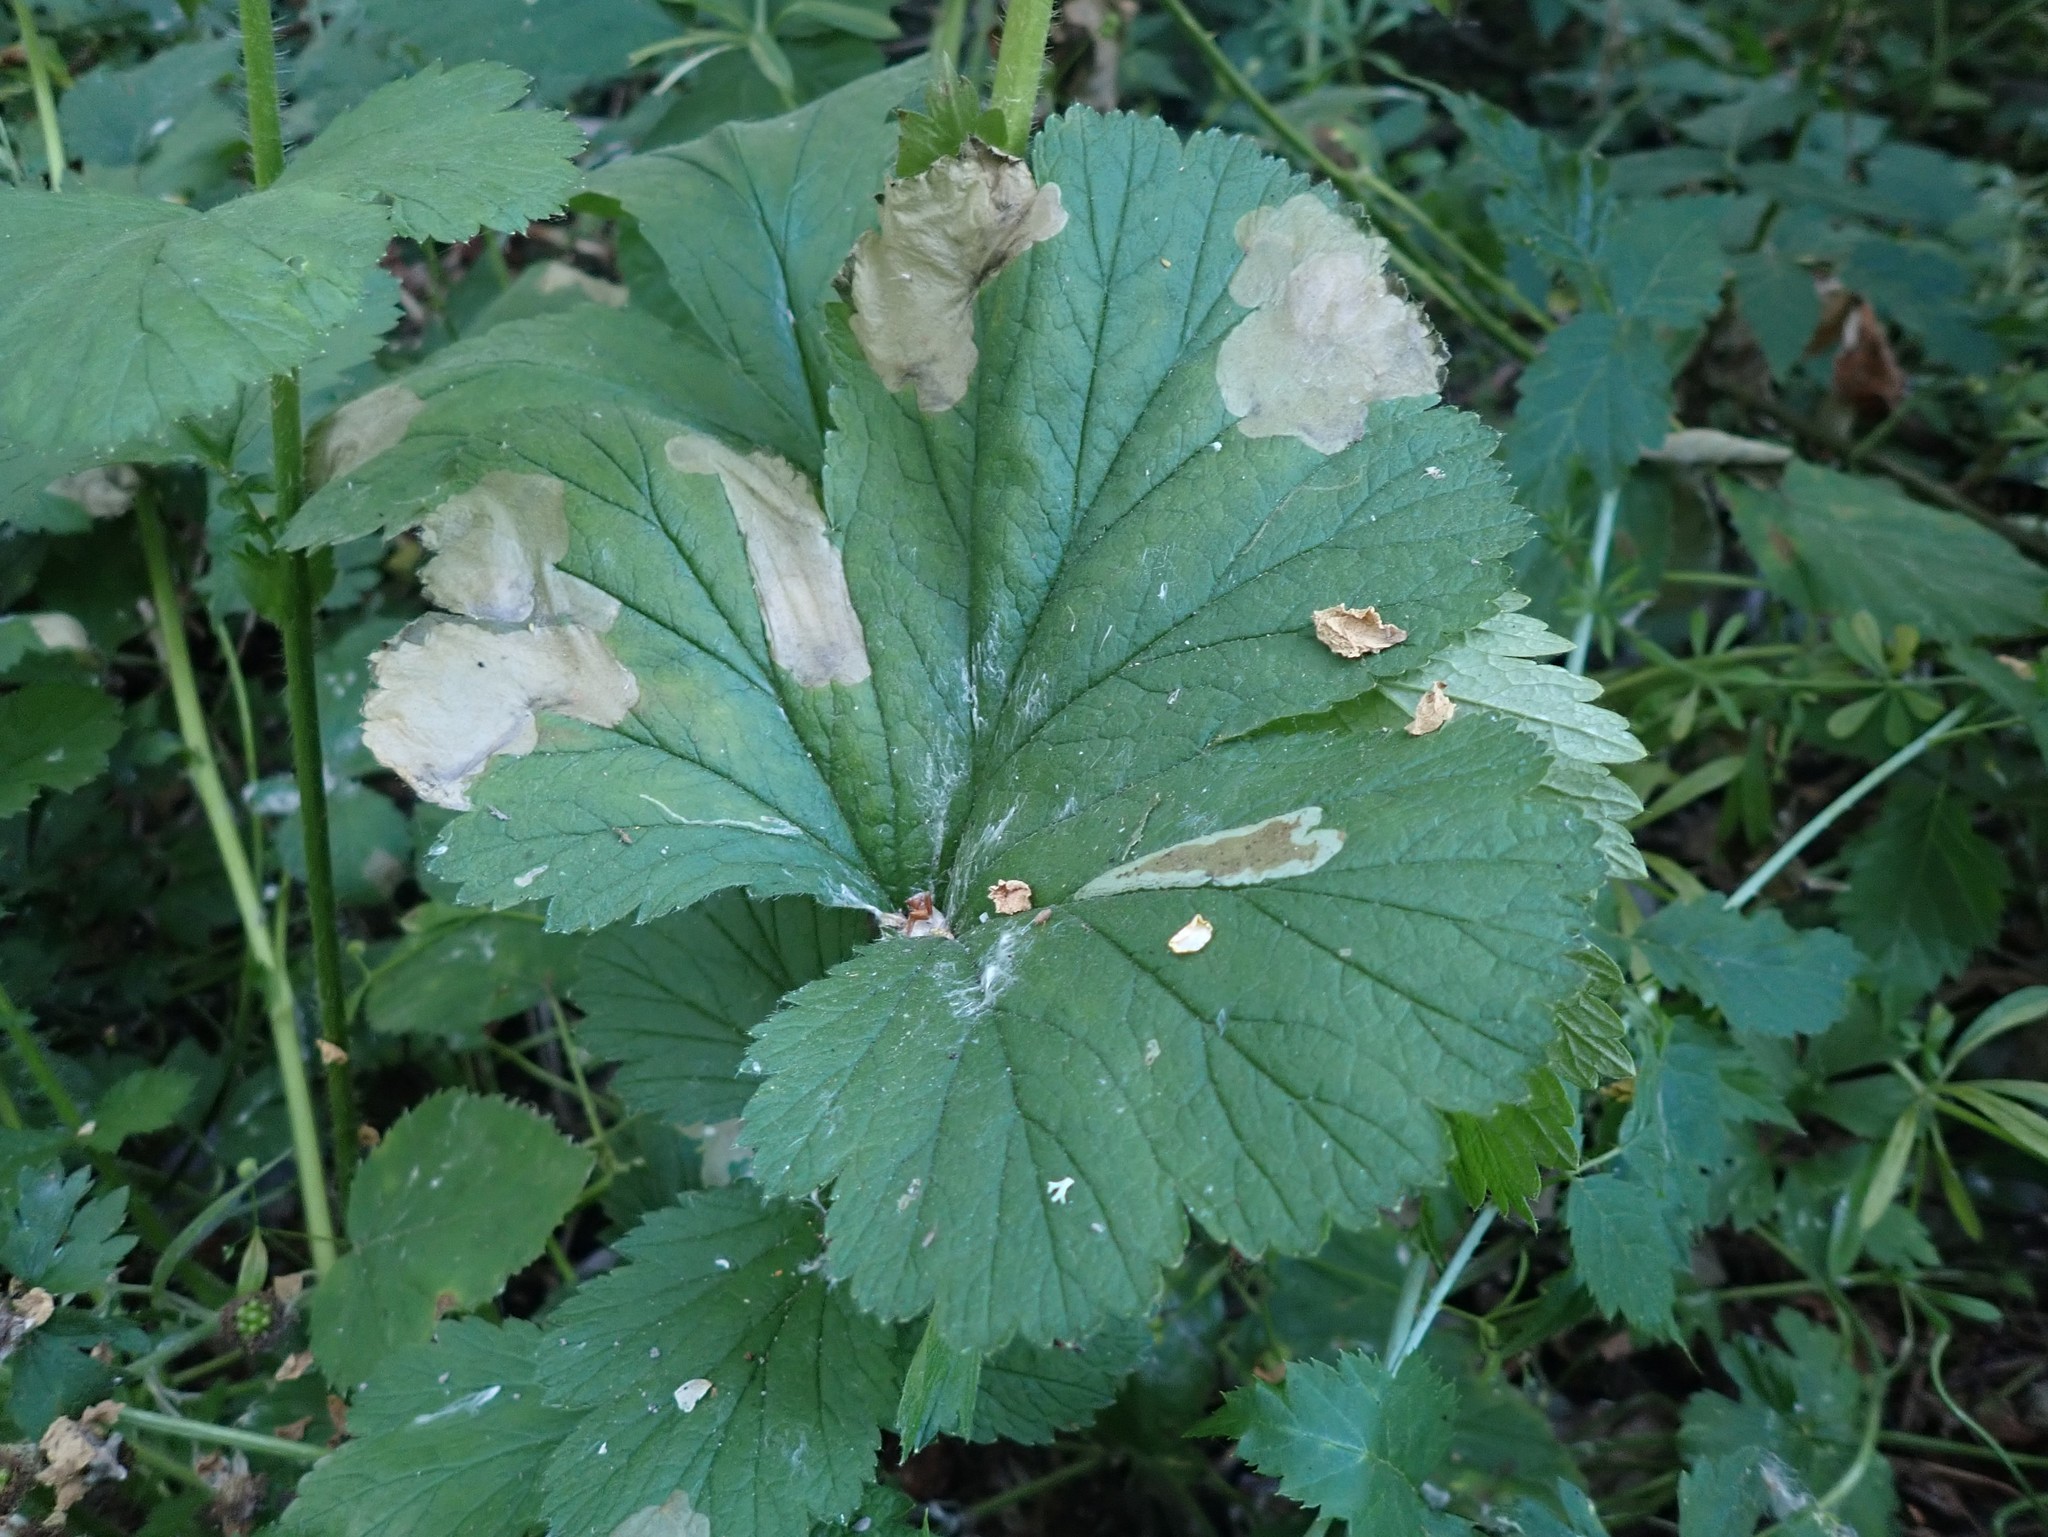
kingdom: Animalia
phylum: Arthropoda
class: Insecta
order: Hymenoptera
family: Tenthredinidae
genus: Metallus
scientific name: Metallus lanceolatus
